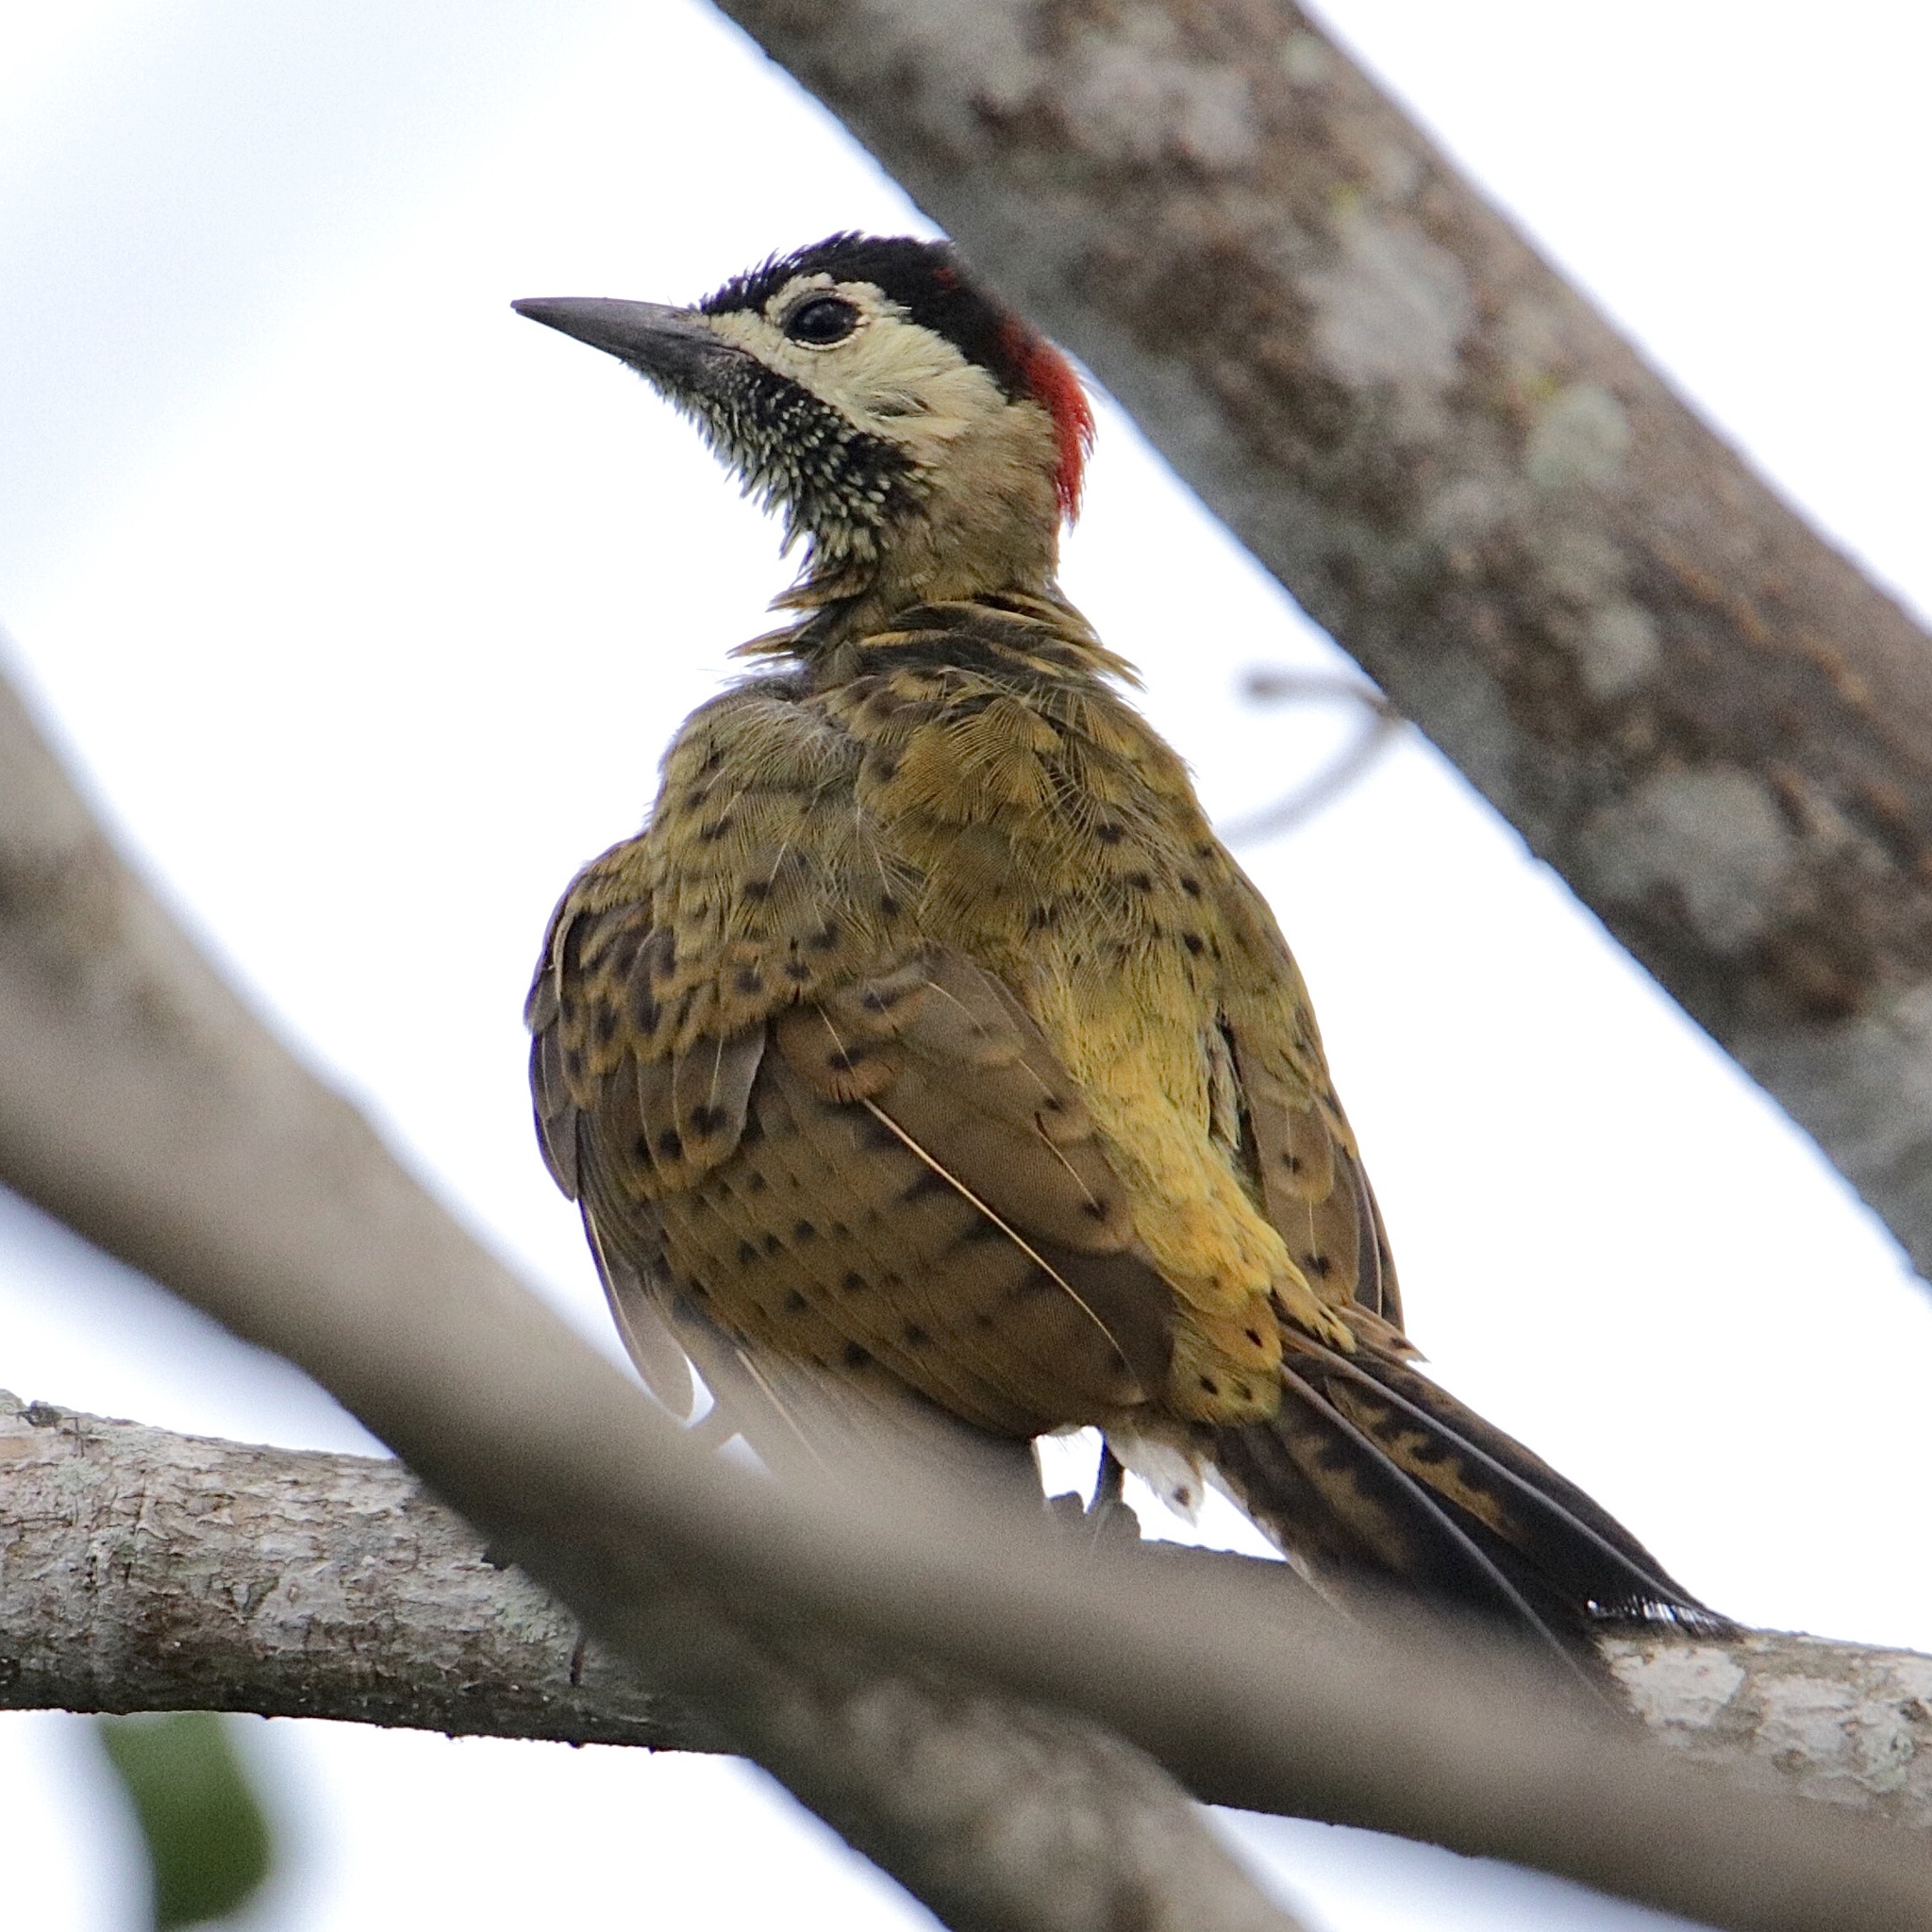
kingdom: Animalia
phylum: Chordata
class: Aves
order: Piciformes
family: Picidae
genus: Colaptes
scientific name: Colaptes punctigula
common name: Spot-breasted woodpecker
